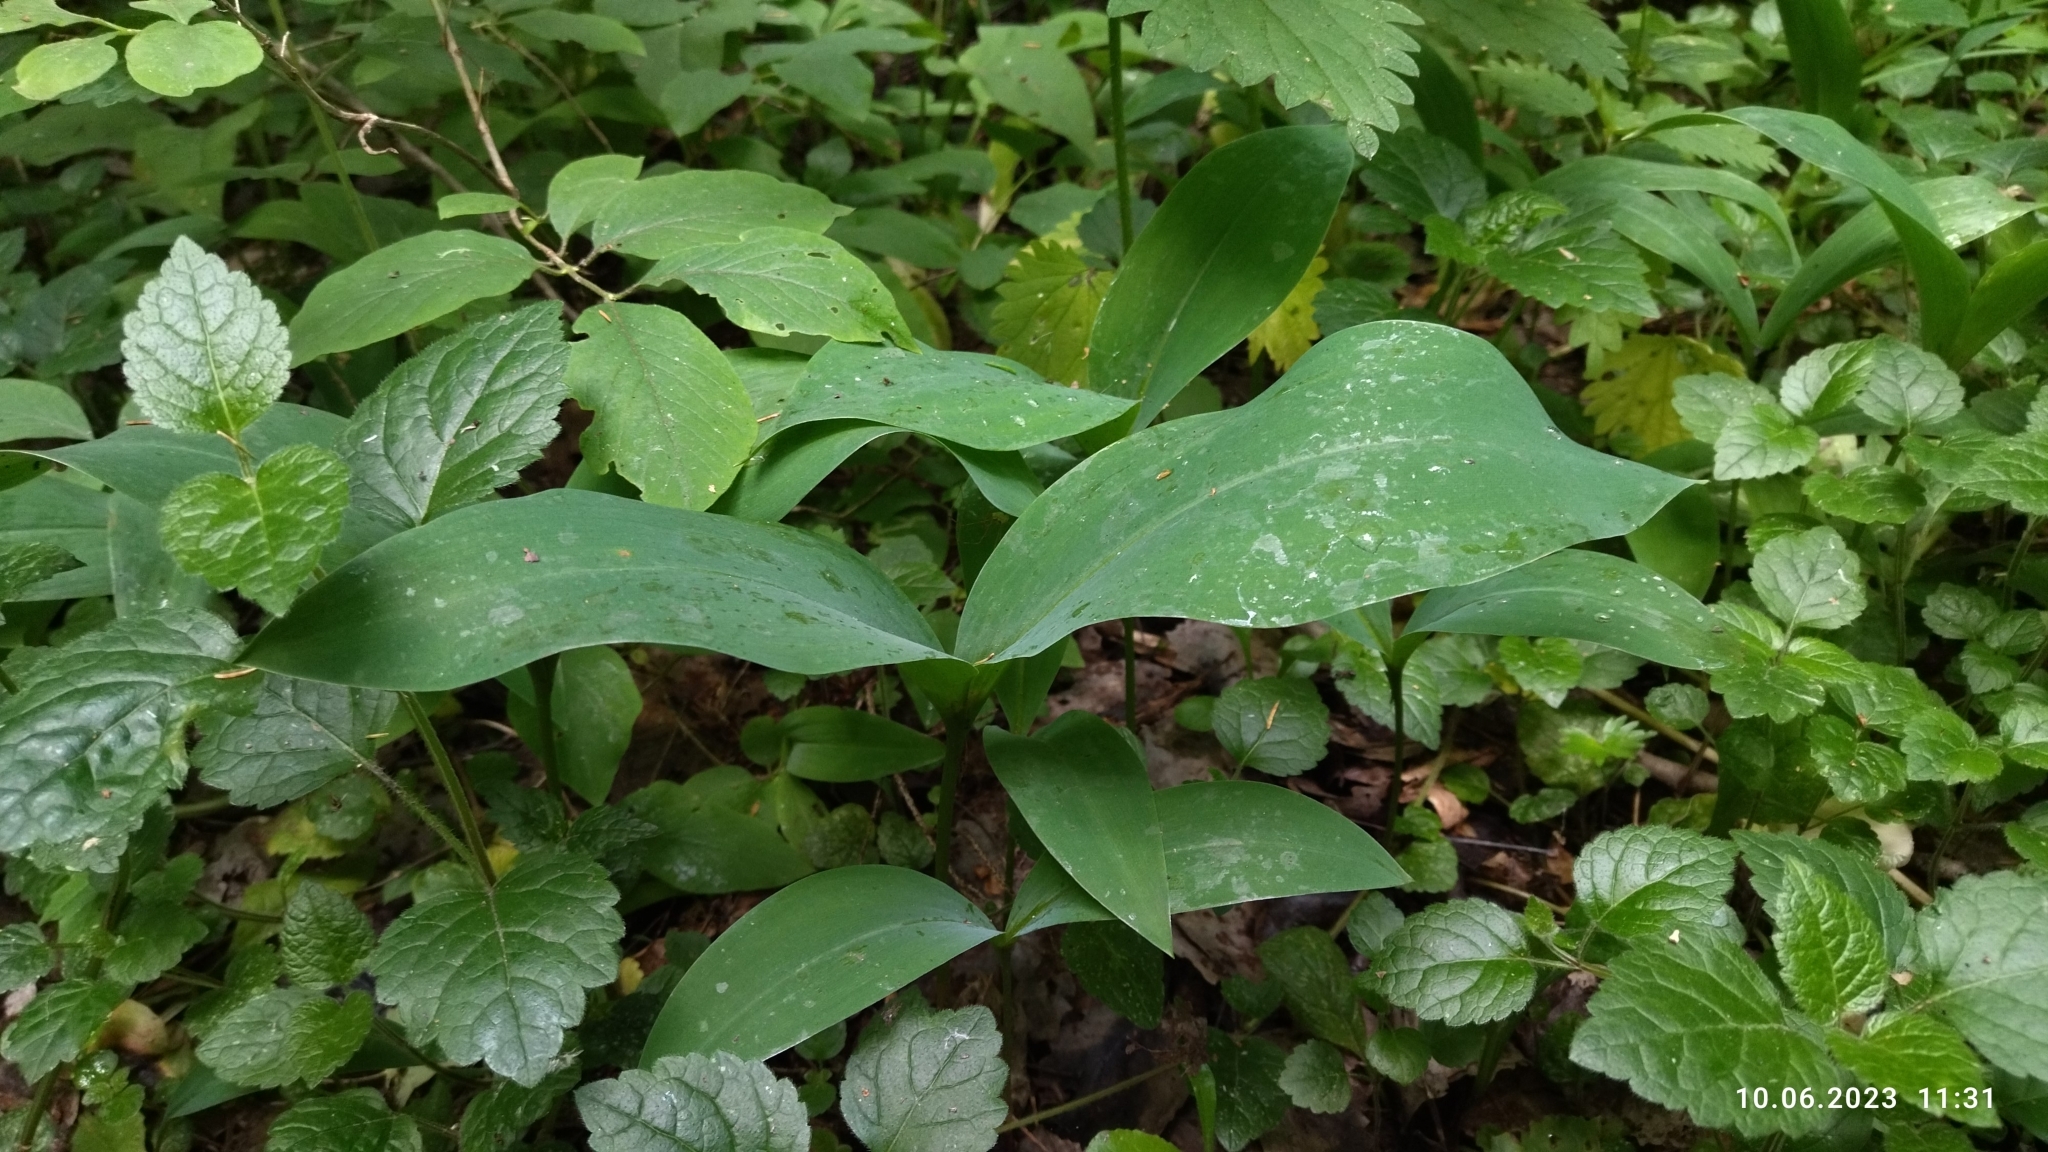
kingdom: Plantae
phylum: Tracheophyta
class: Liliopsida
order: Asparagales
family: Asparagaceae
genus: Convallaria
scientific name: Convallaria majalis
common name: Lily-of-the-valley
